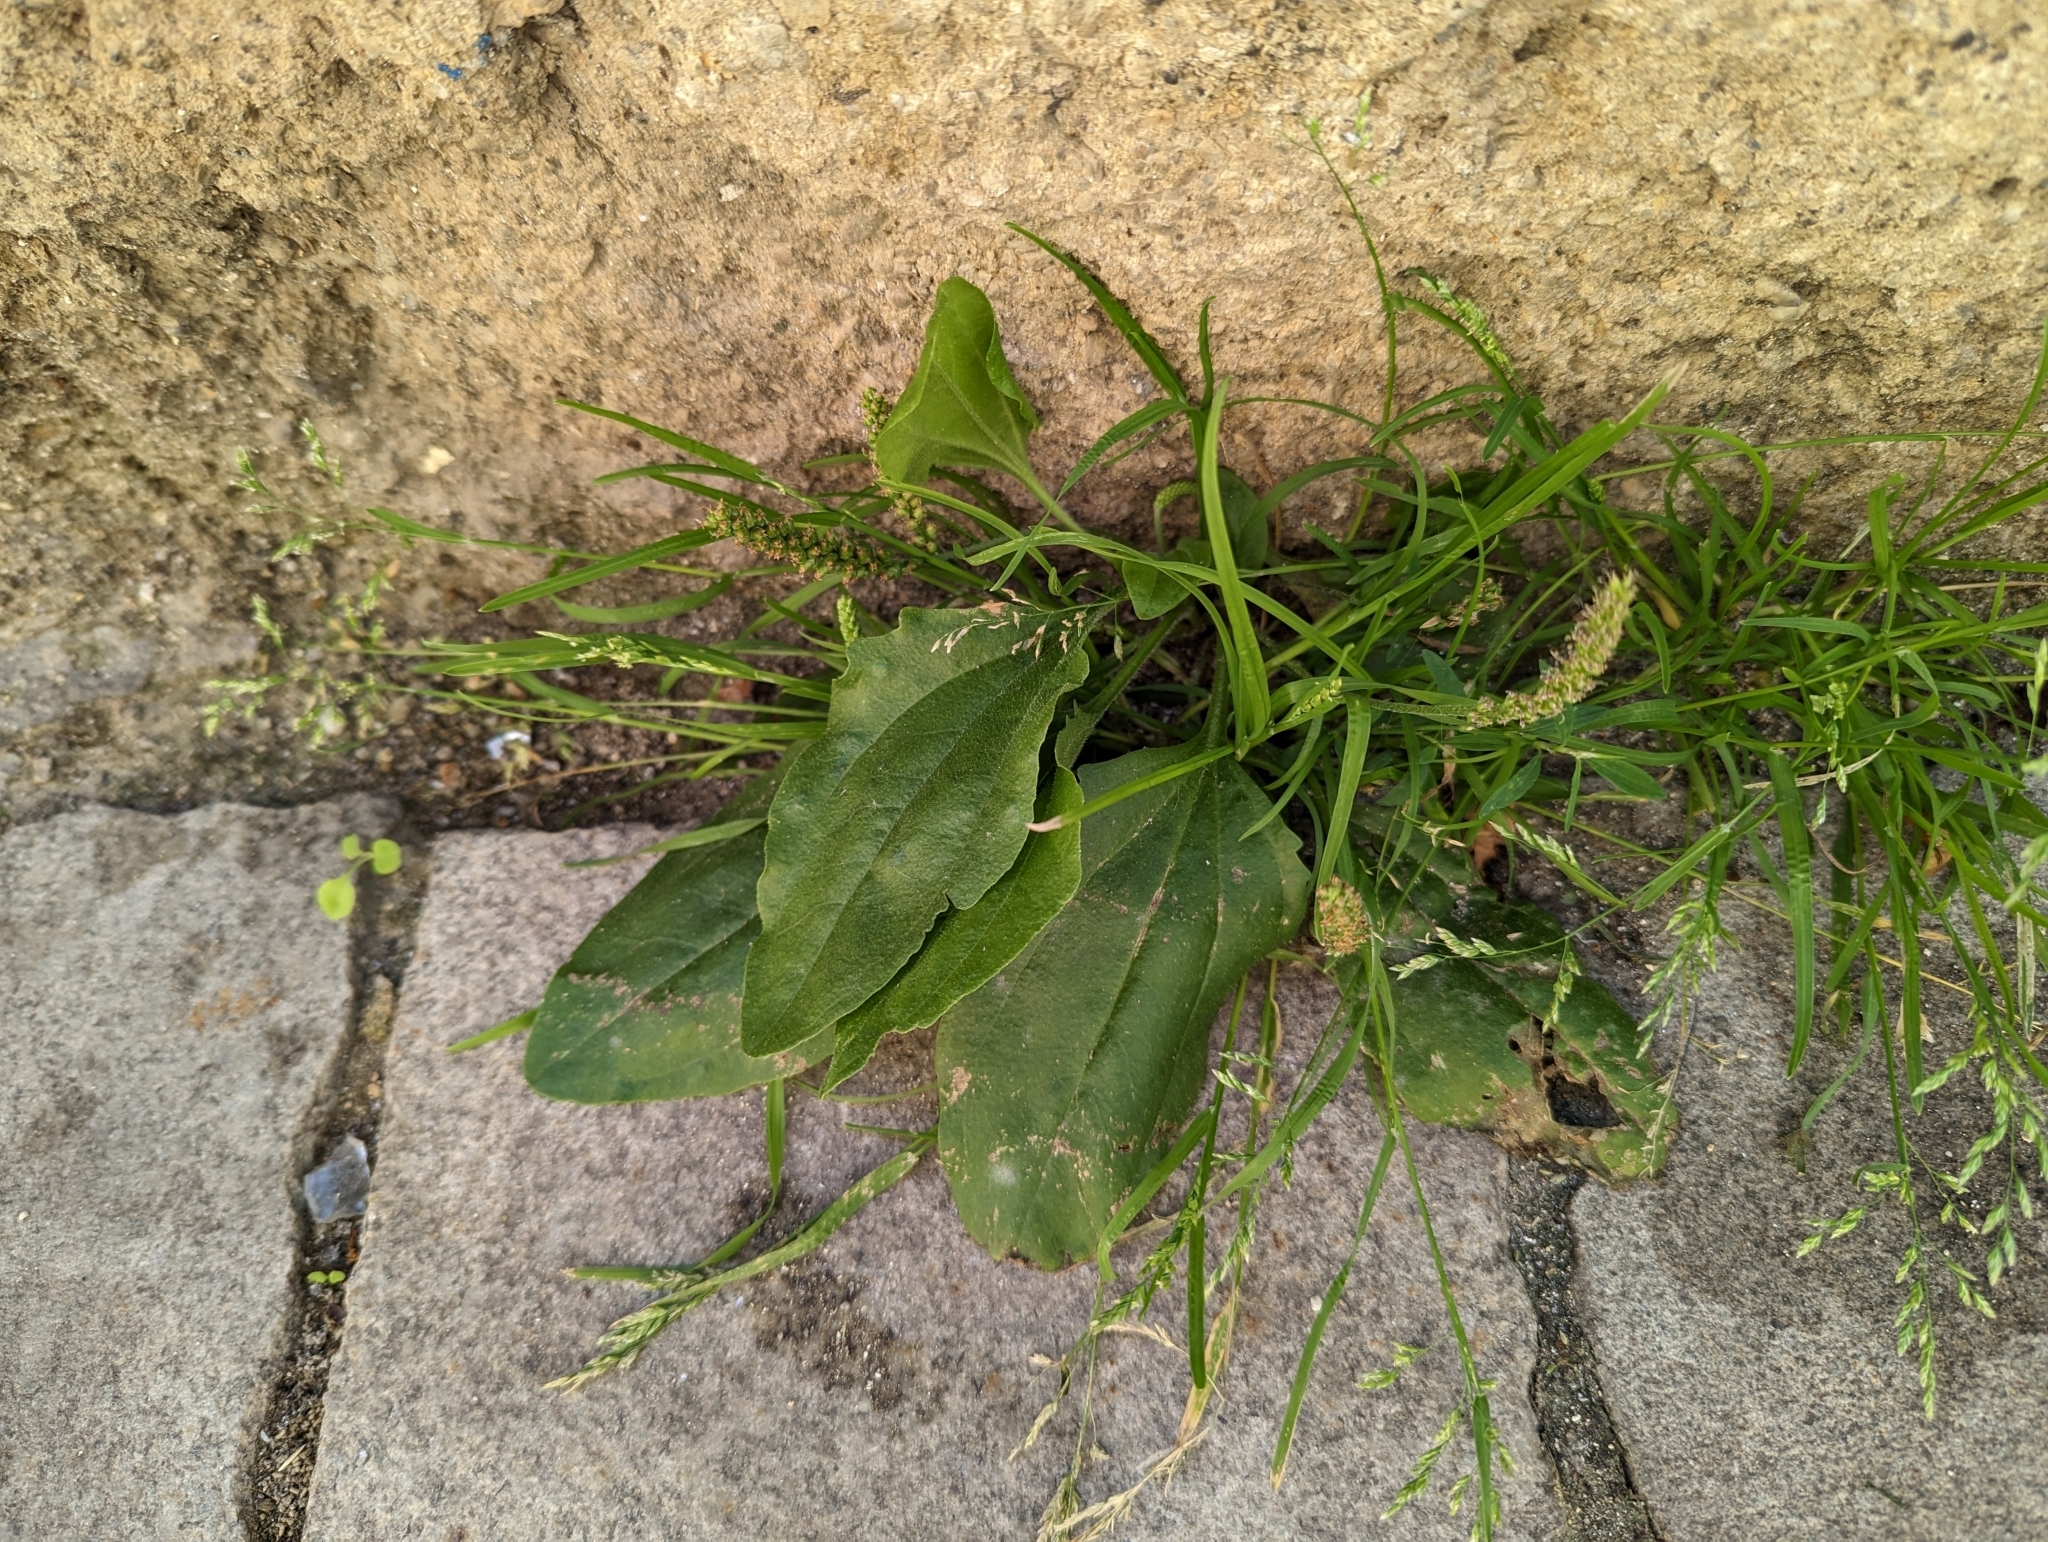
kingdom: Plantae
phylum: Tracheophyta
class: Magnoliopsida
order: Lamiales
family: Plantaginaceae
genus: Plantago
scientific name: Plantago major
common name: Common plantain
